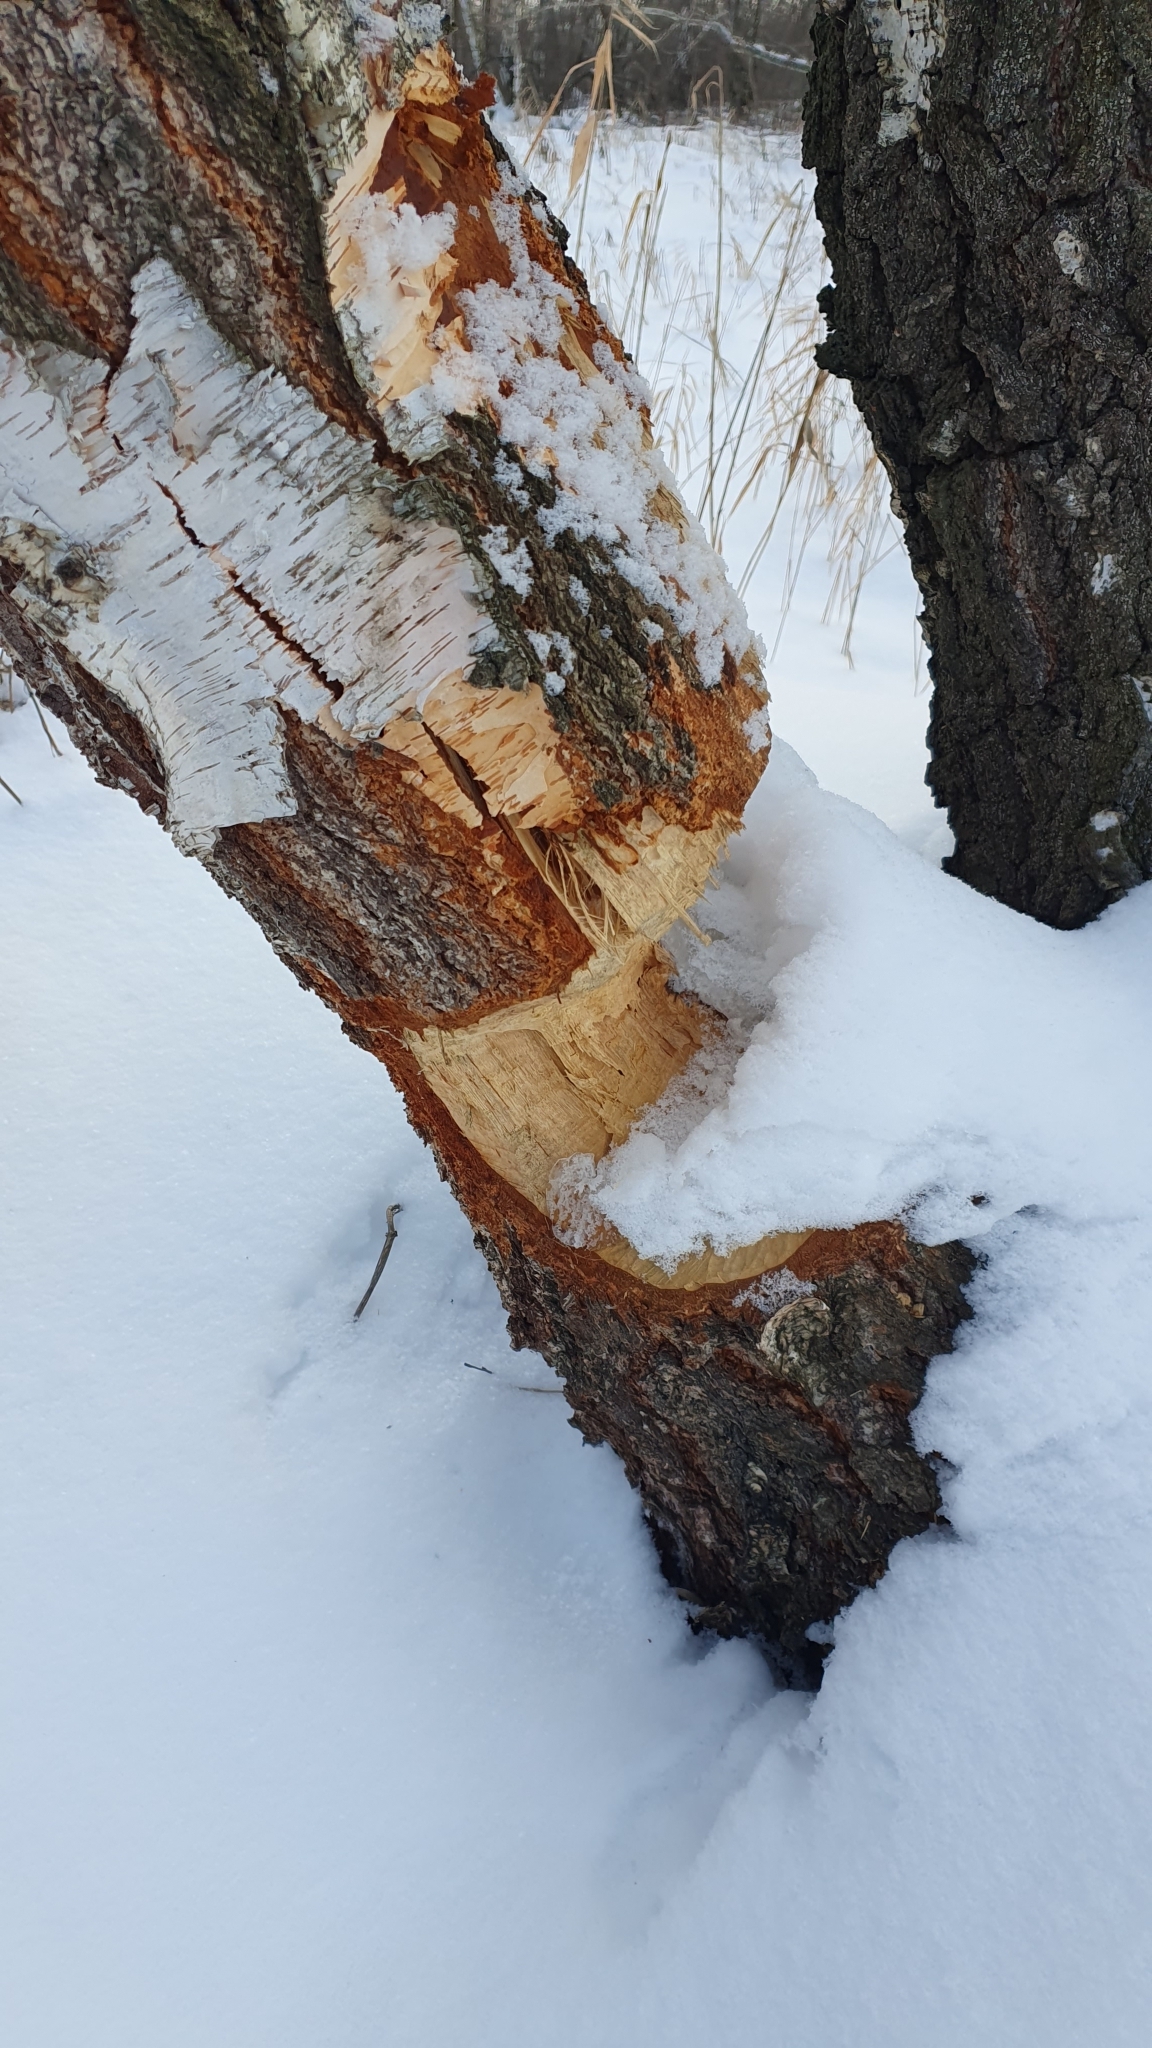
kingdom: Animalia
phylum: Chordata
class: Mammalia
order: Rodentia
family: Castoridae
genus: Castor
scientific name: Castor fiber
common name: Eurasian beaver
